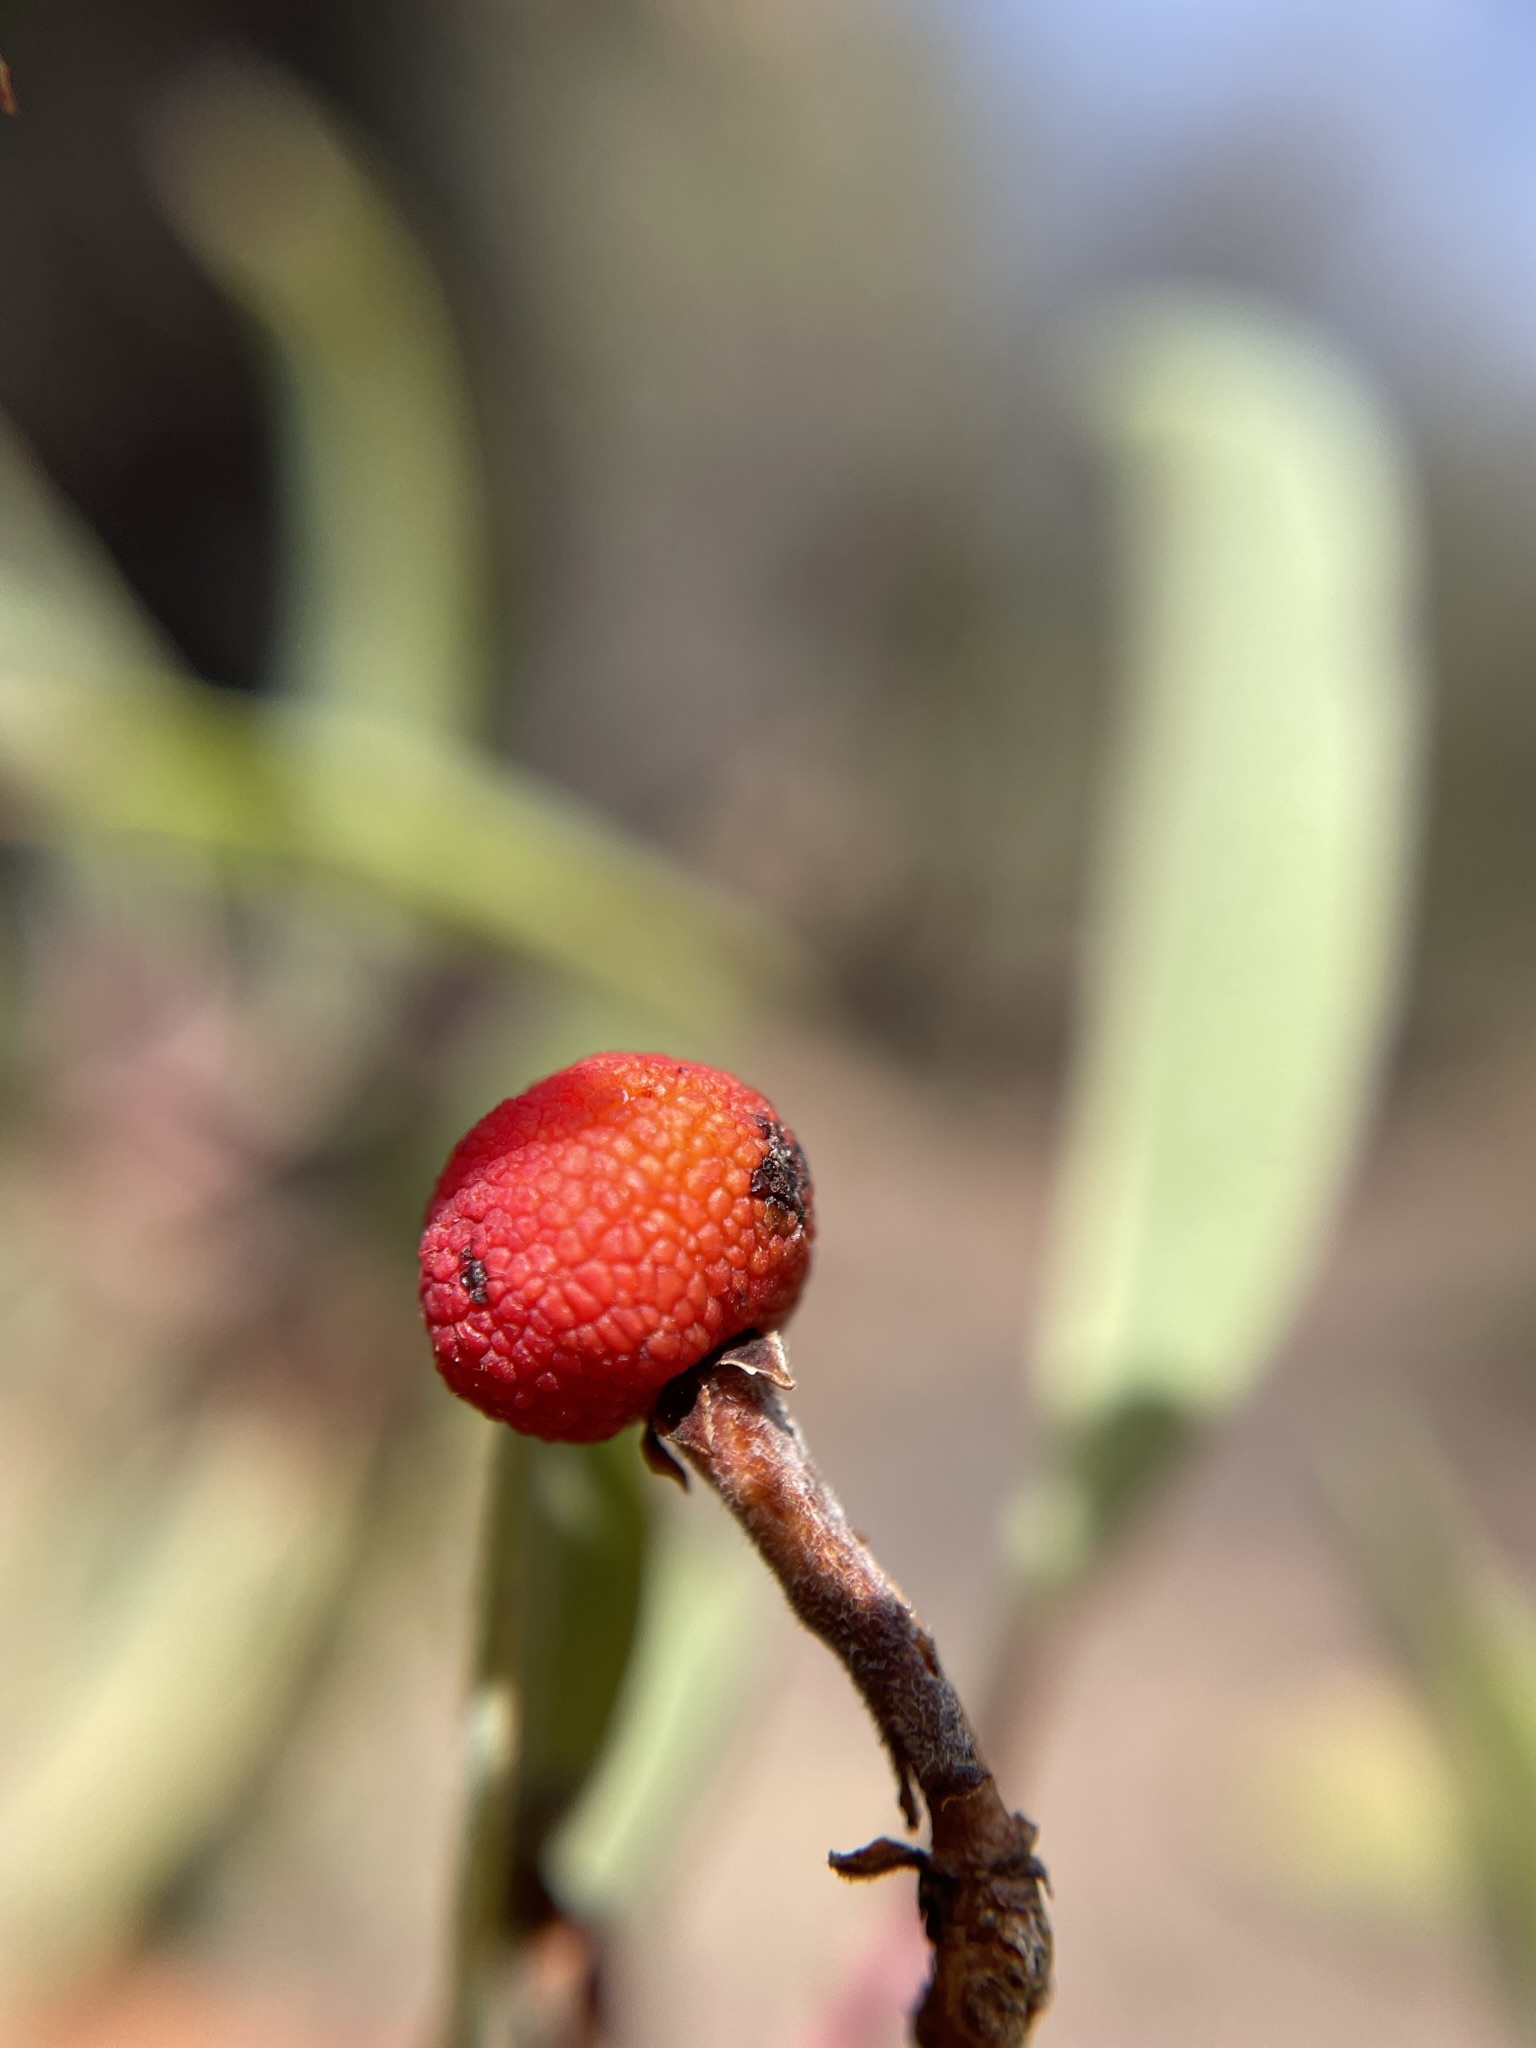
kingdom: Plantae
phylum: Tracheophyta
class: Magnoliopsida
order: Ericales
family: Ericaceae
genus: Arbutus
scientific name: Arbutus xalapensis
